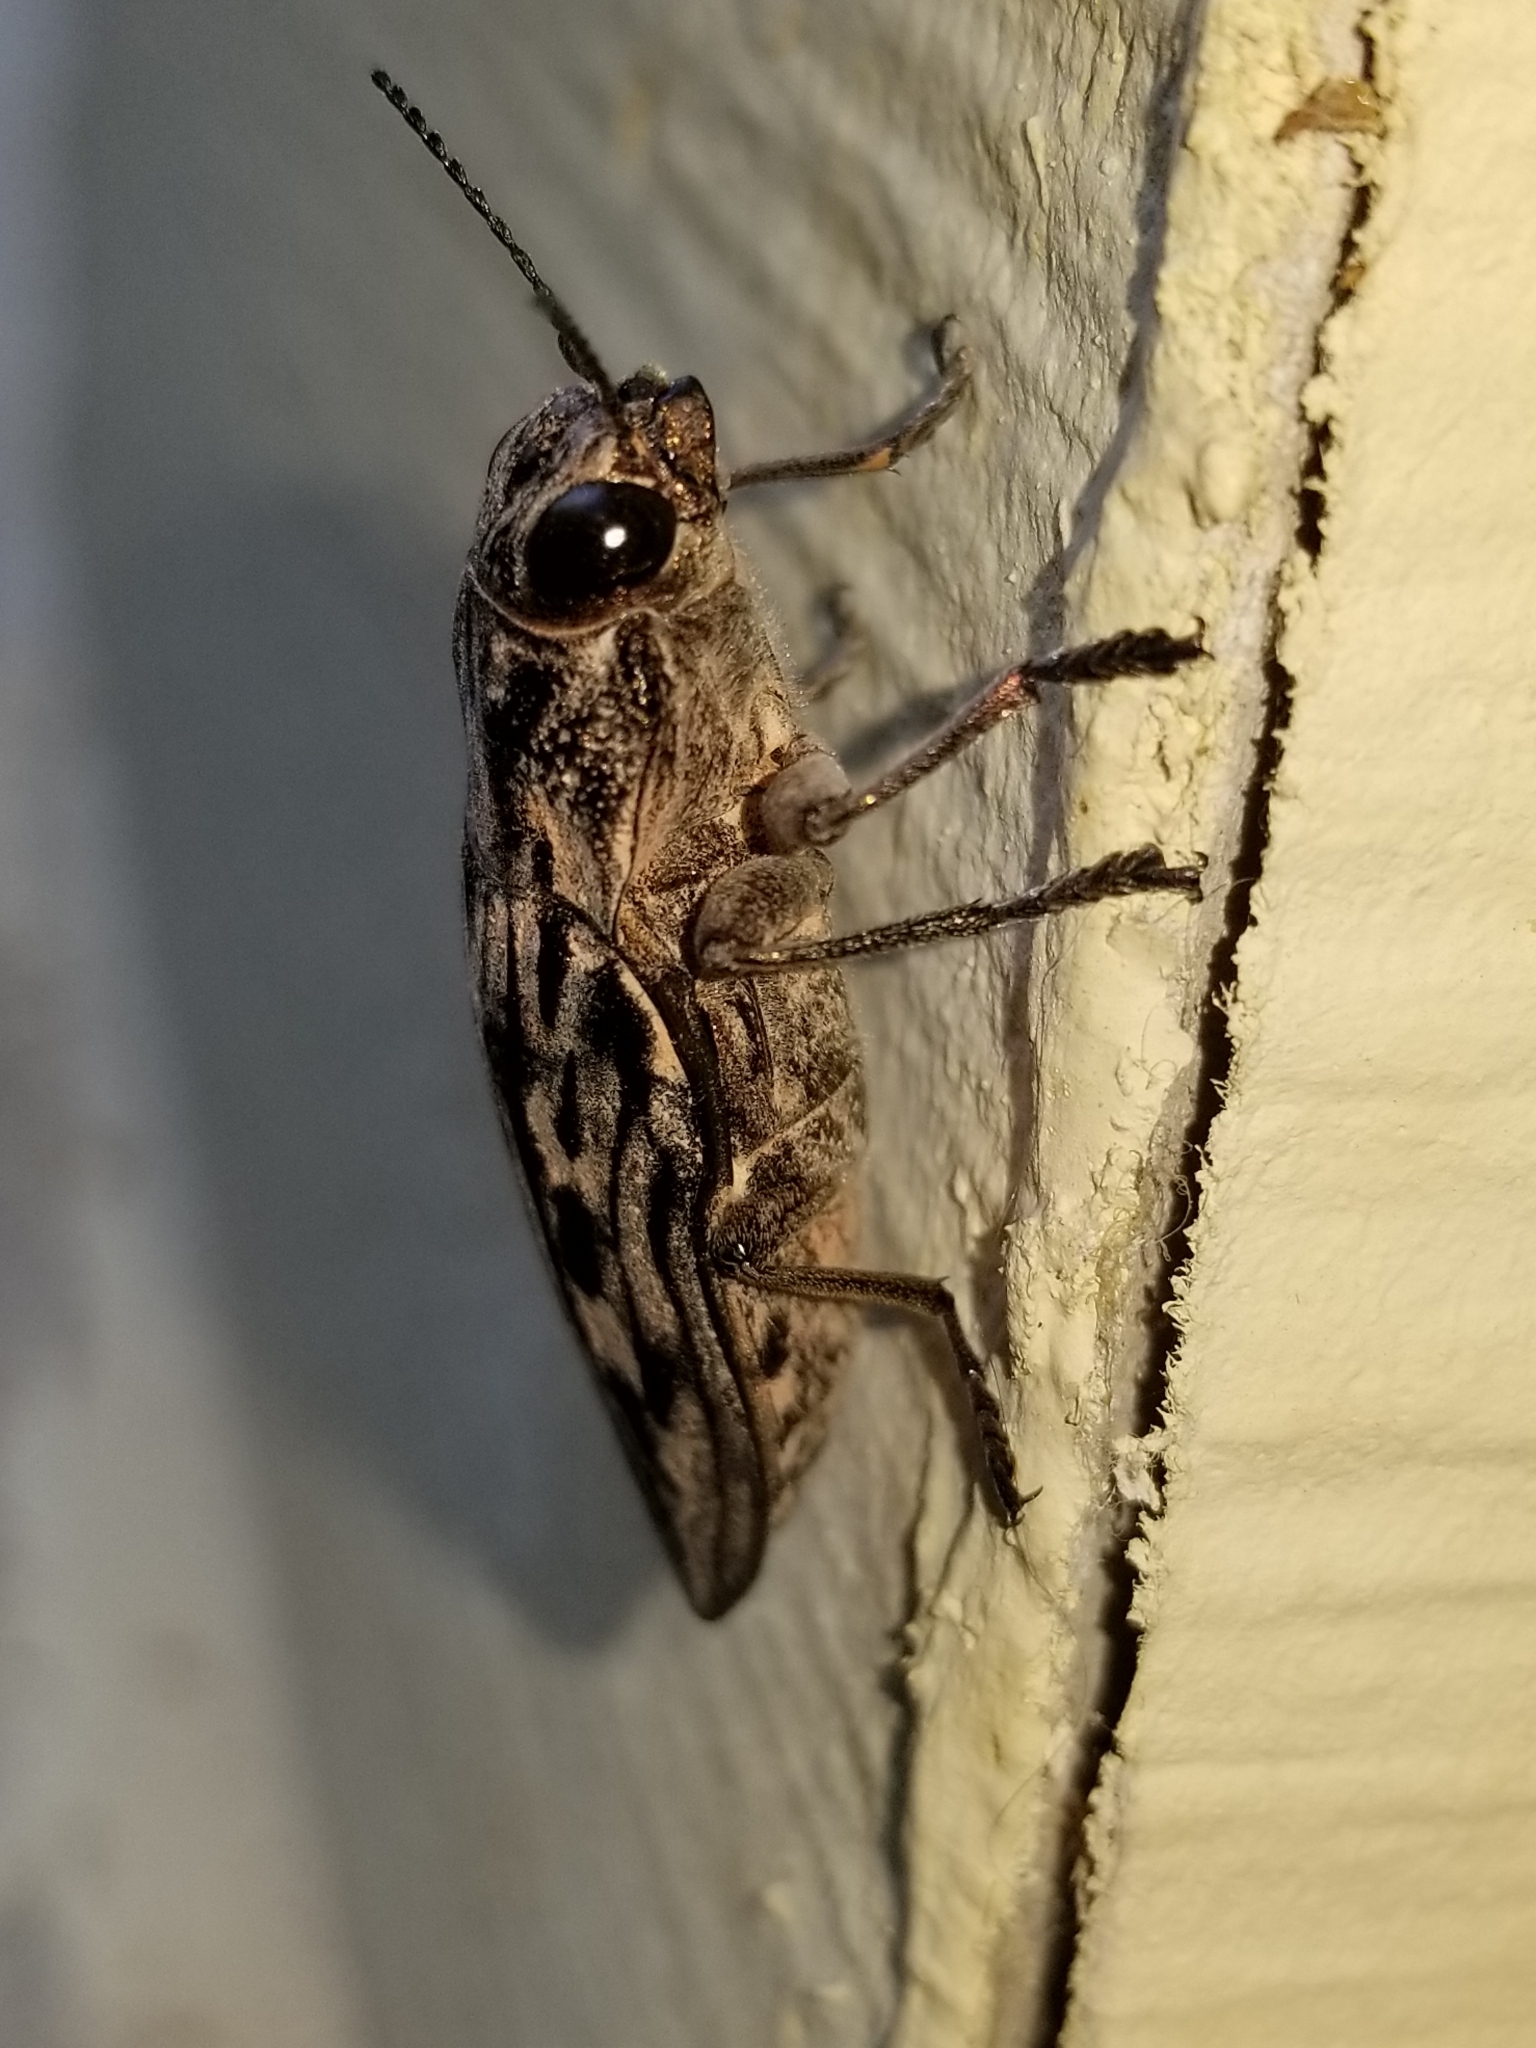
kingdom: Animalia
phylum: Arthropoda
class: Insecta
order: Coleoptera
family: Buprestidae
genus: Chalcophora
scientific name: Chalcophora virginiensis
